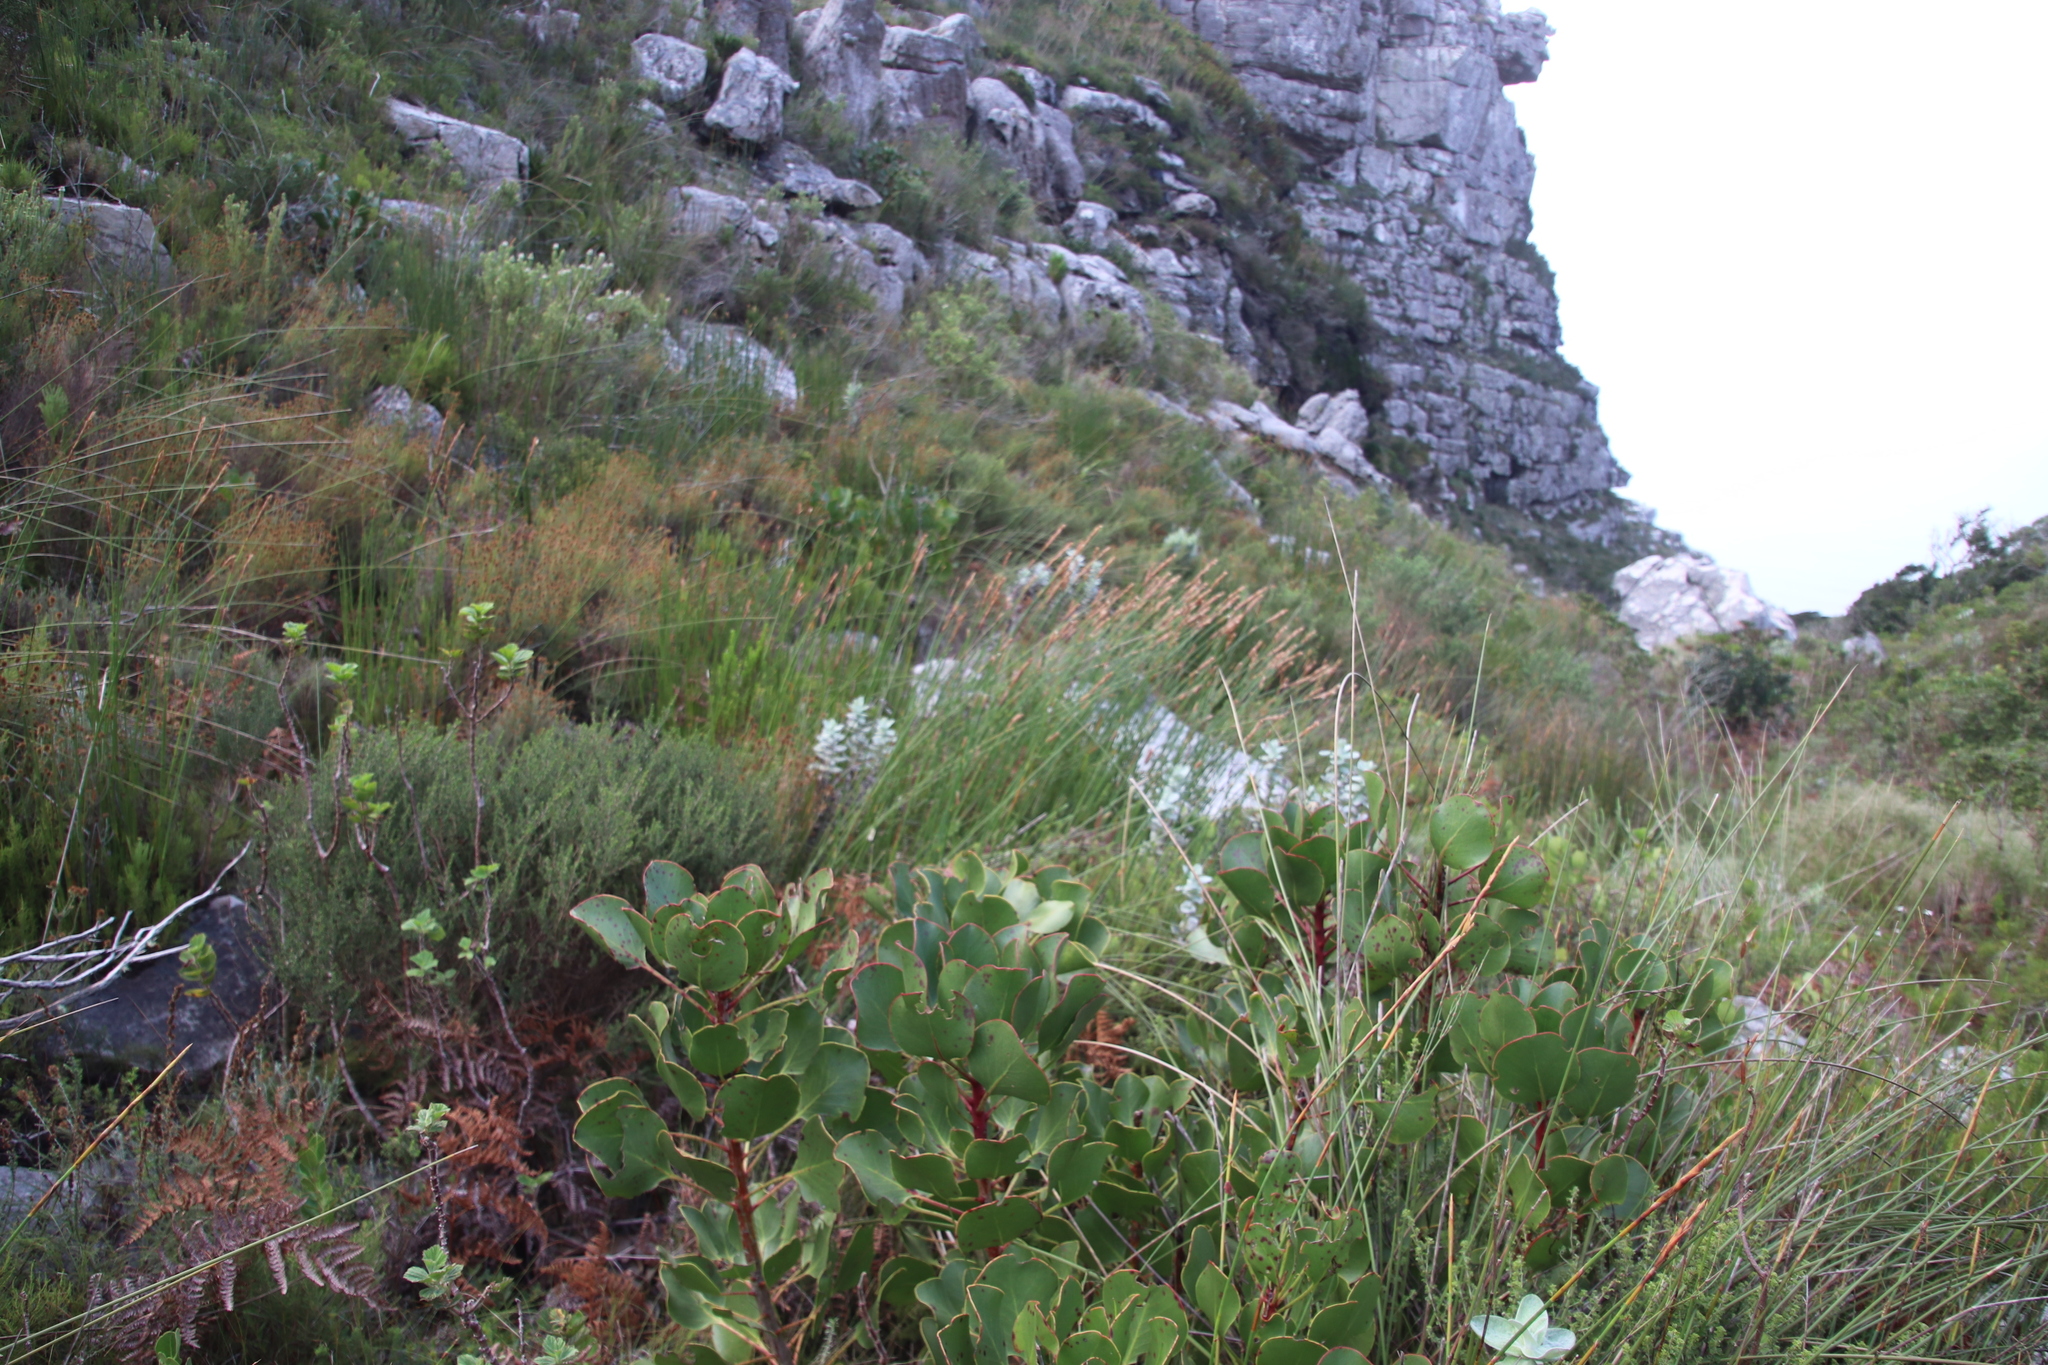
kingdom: Plantae
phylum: Tracheophyta
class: Liliopsida
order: Poales
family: Restionaceae
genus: Elegia
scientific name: Elegia racemosa
